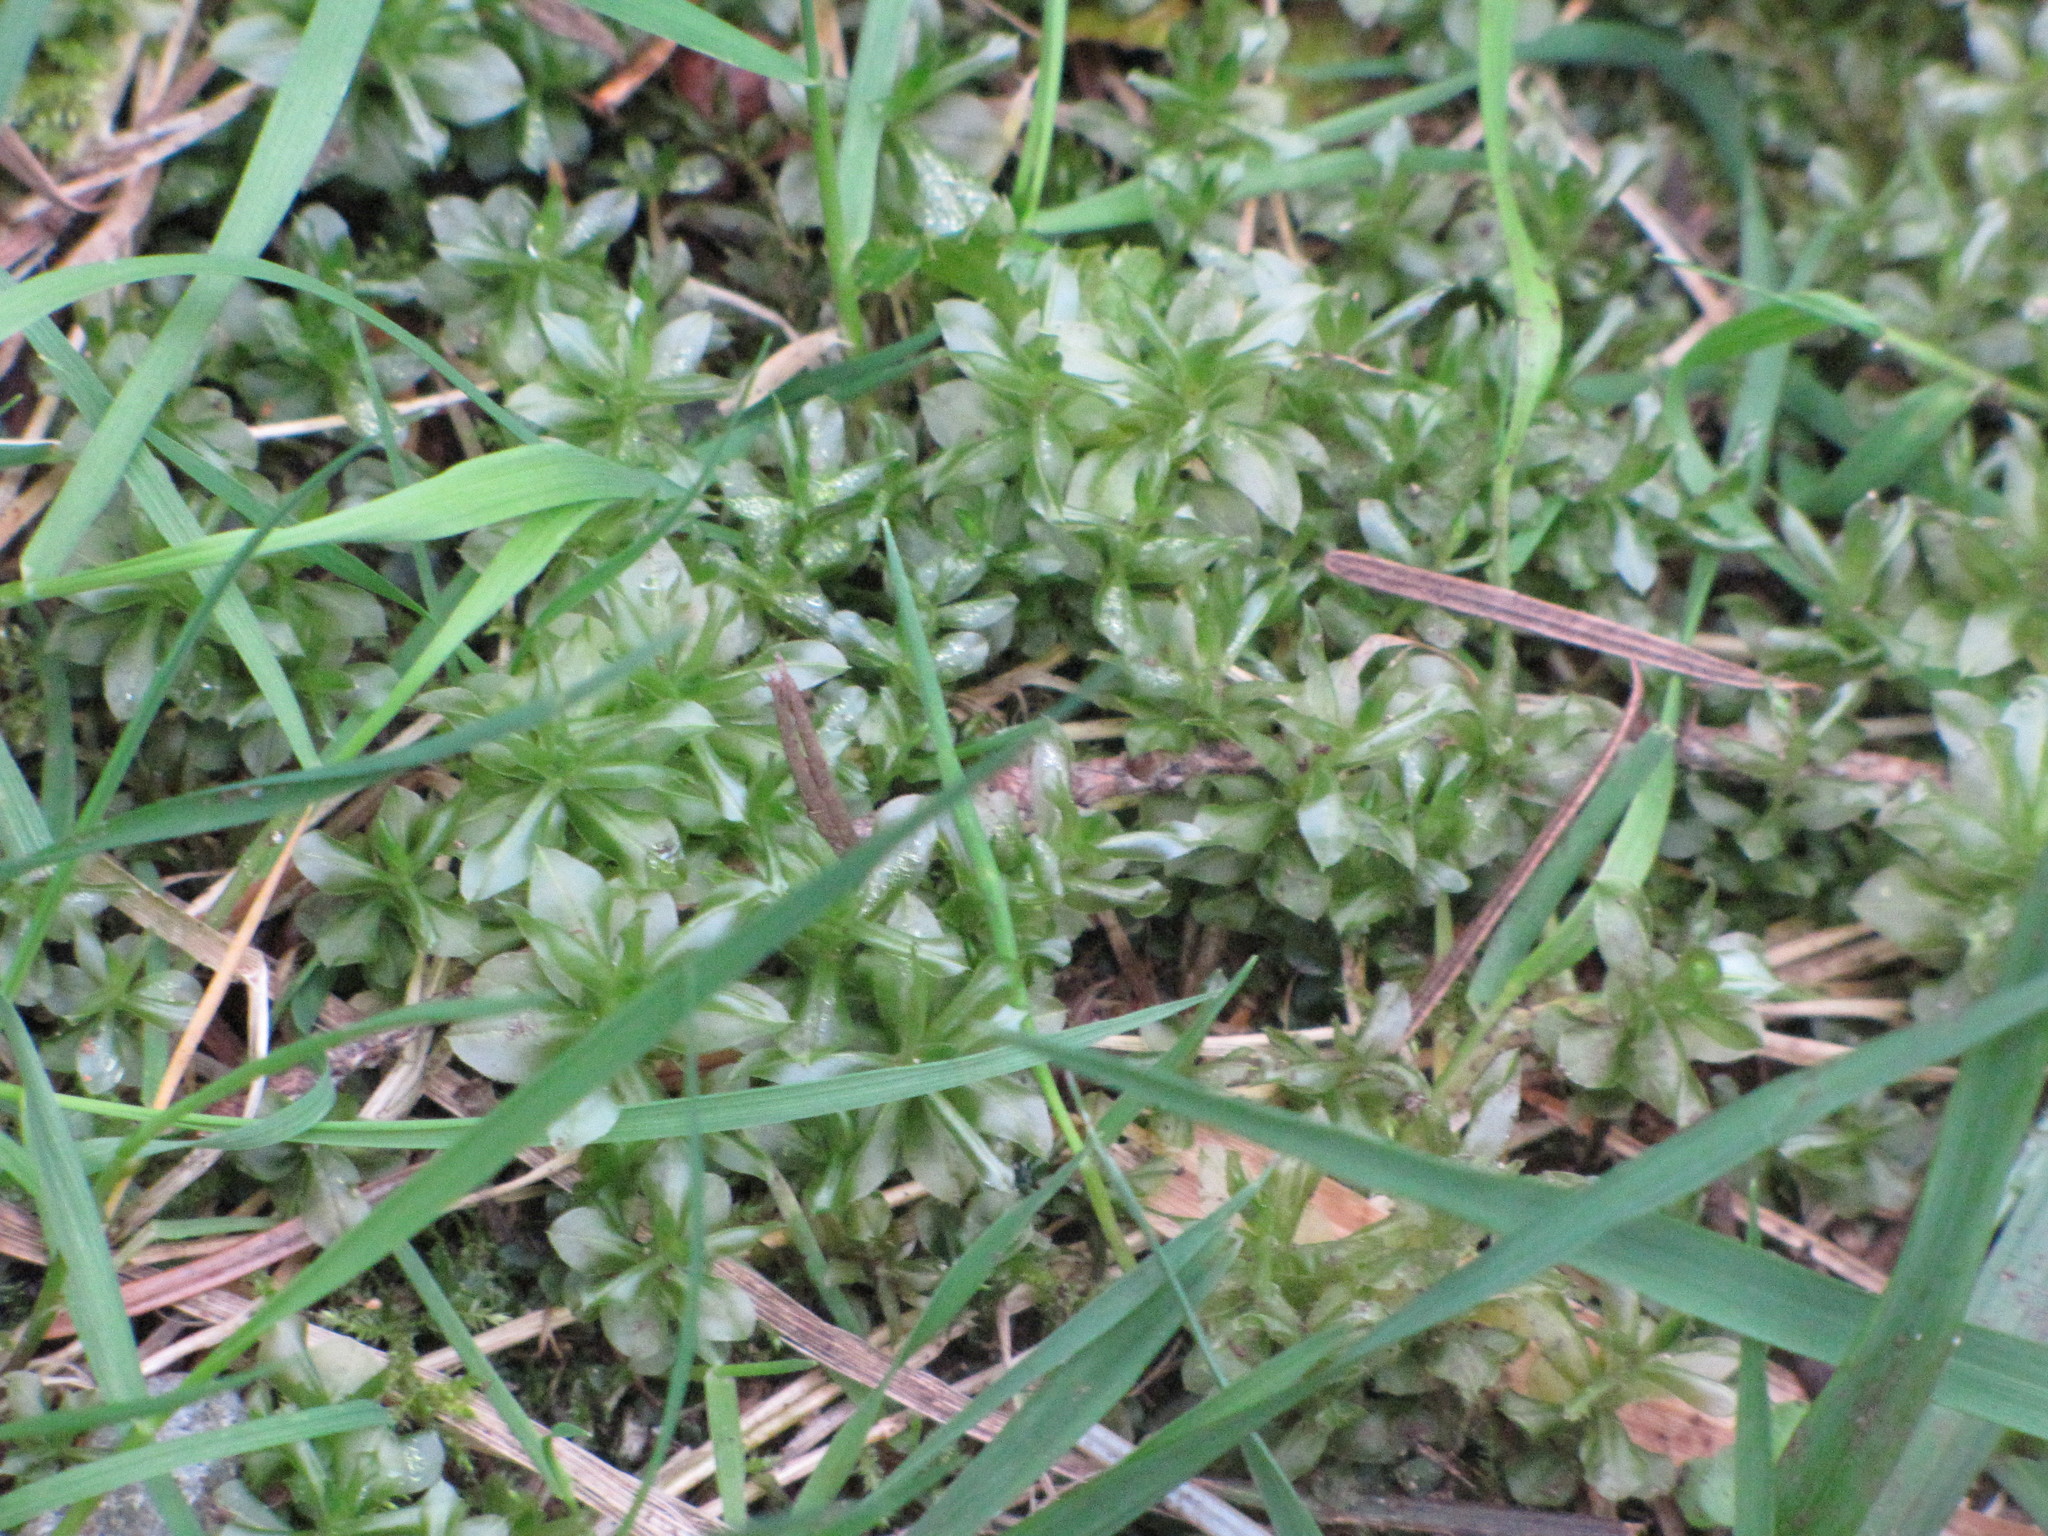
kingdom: Plantae
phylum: Bryophyta
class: Bryopsida
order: Bryales
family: Mniaceae
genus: Plagiomnium
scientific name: Plagiomnium insigne
